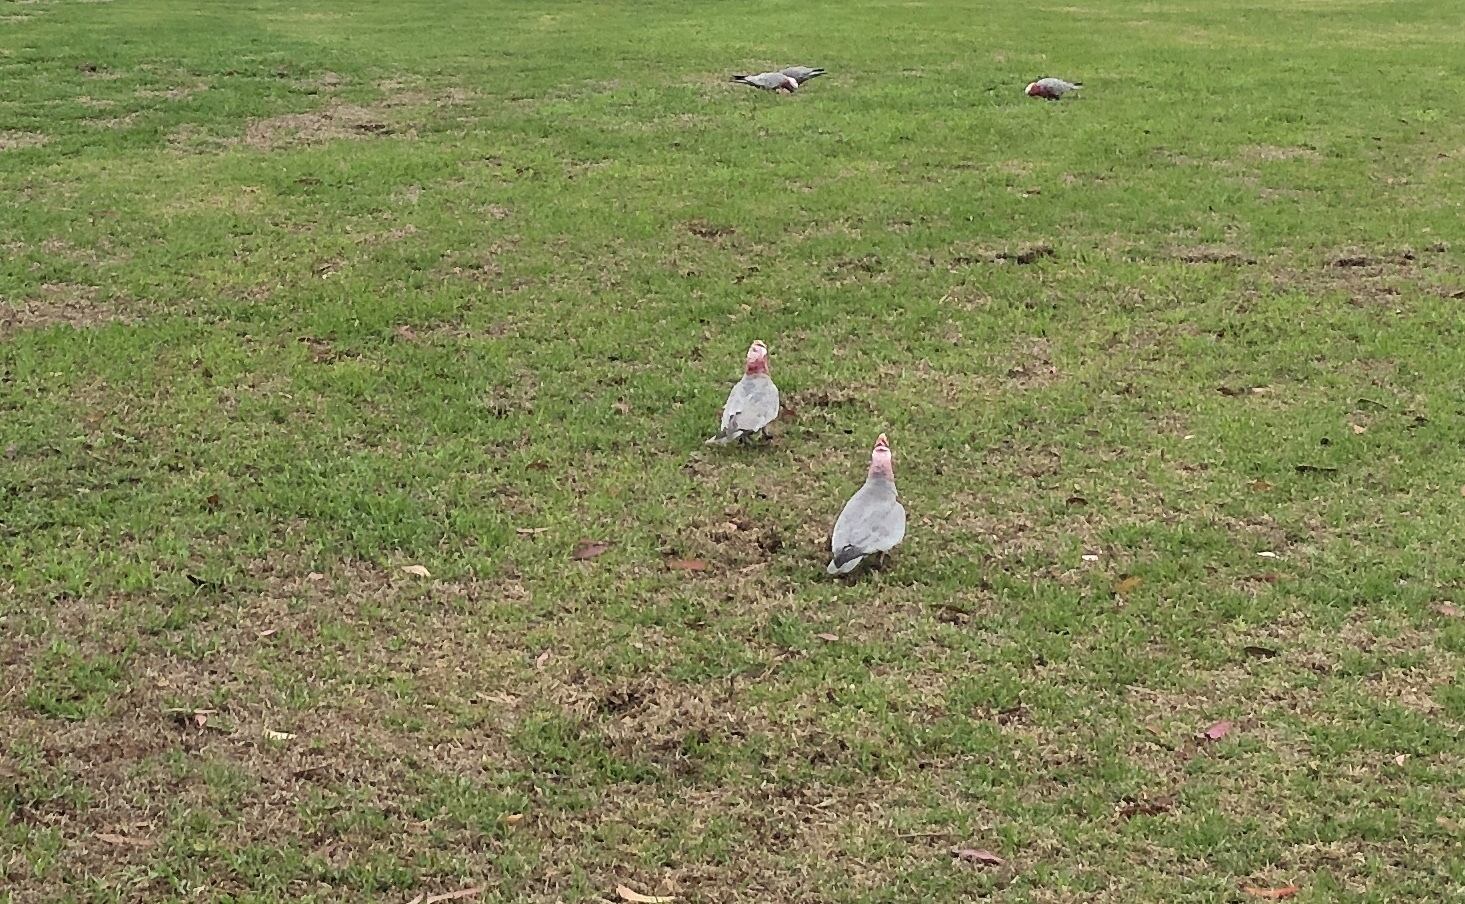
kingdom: Animalia
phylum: Chordata
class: Aves
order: Psittaciformes
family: Psittacidae
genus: Eolophus
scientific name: Eolophus roseicapilla
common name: Galah
